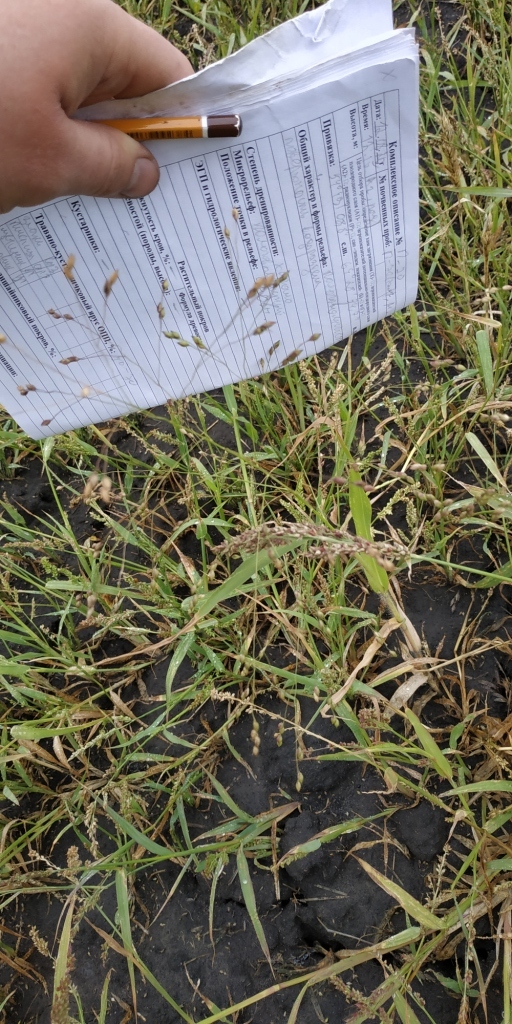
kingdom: Plantae
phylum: Tracheophyta
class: Liliopsida
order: Poales
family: Poaceae
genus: Panicum
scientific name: Panicum miliaceum
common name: Common millet
